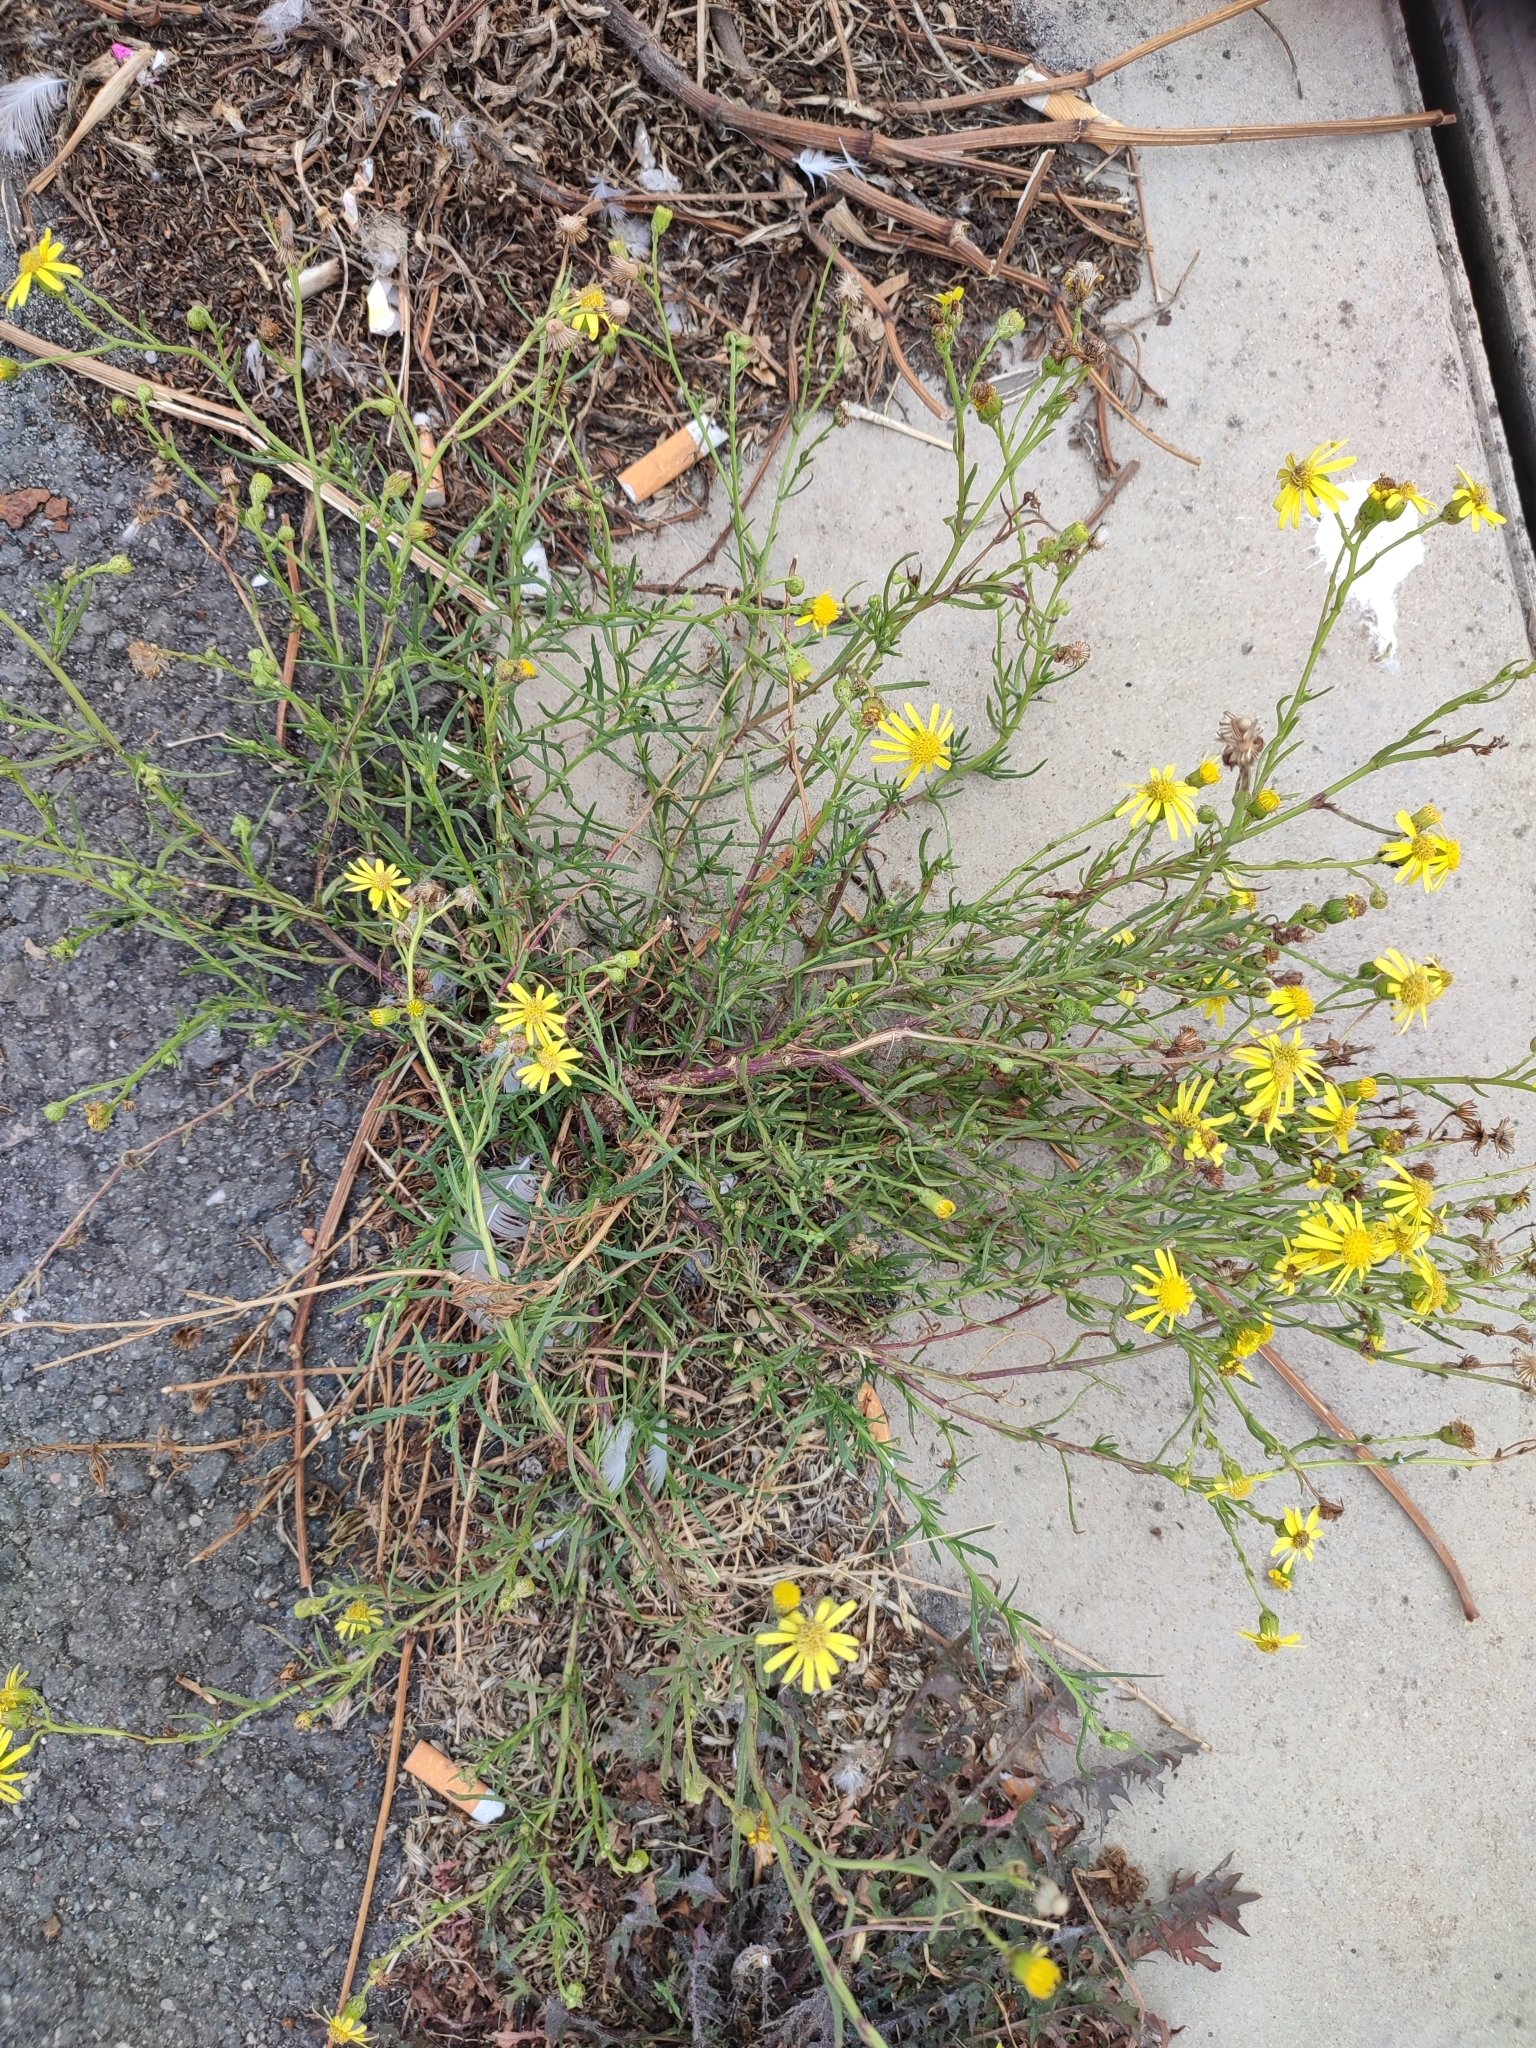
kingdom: Plantae
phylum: Tracheophyta
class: Magnoliopsida
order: Asterales
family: Asteraceae
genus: Senecio
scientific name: Senecio inaequidens
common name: Narrow-leaved ragwort
